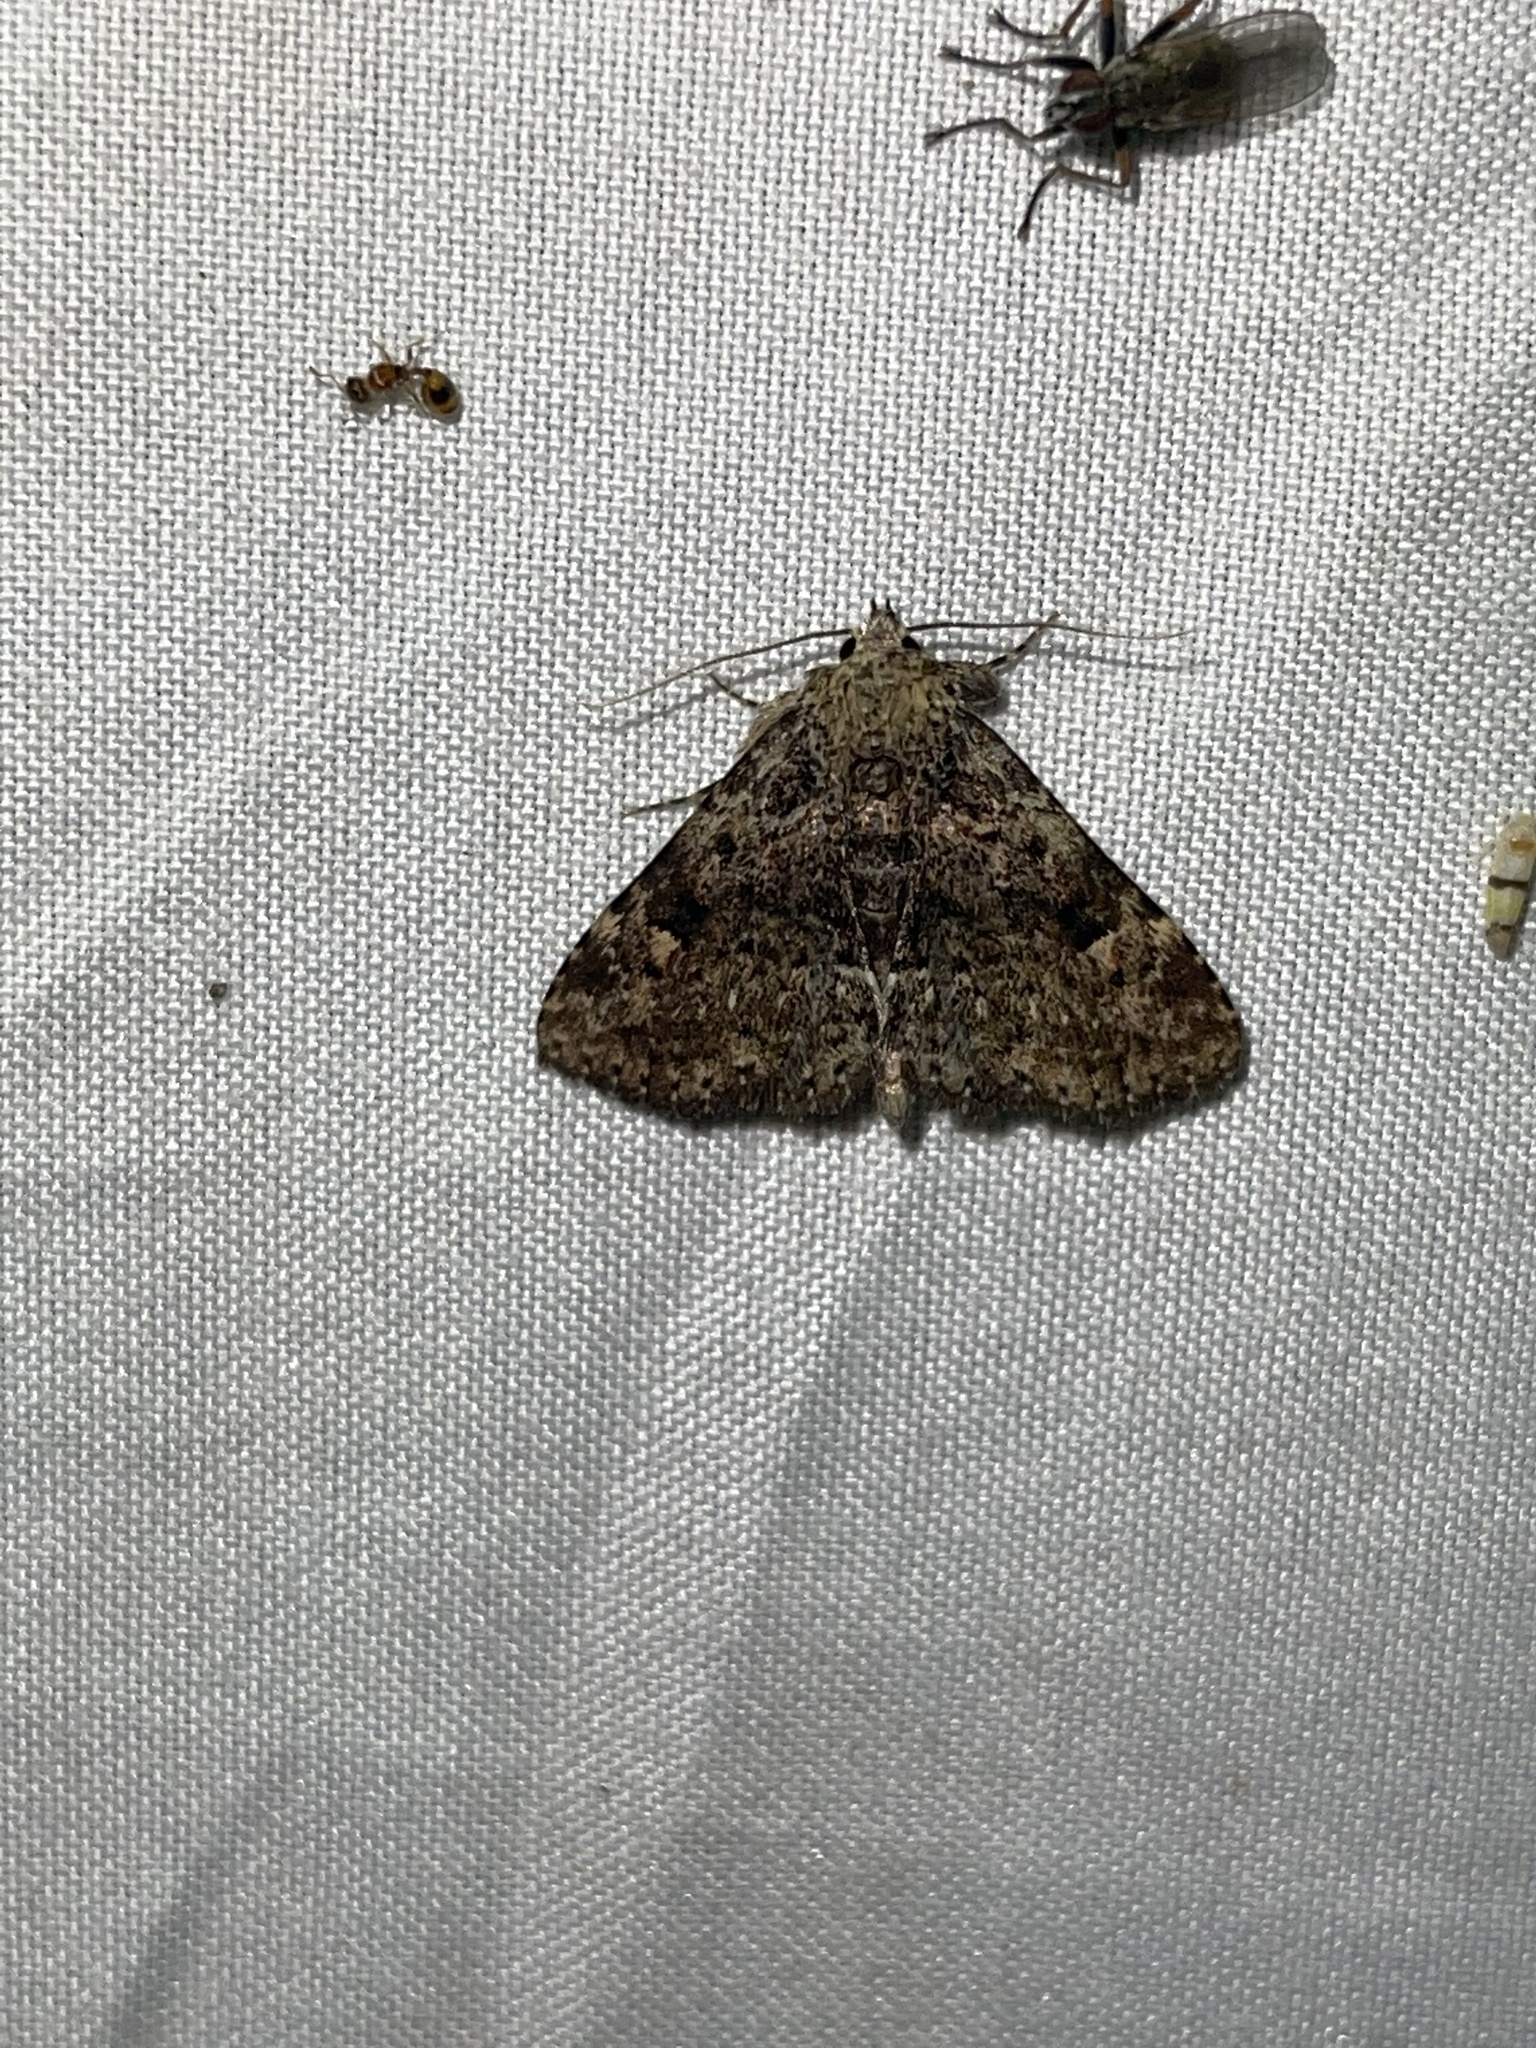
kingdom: Animalia
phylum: Arthropoda
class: Insecta
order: Lepidoptera
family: Erebidae
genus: Metalectra
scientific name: Metalectra discalis
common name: Common fungus moth
